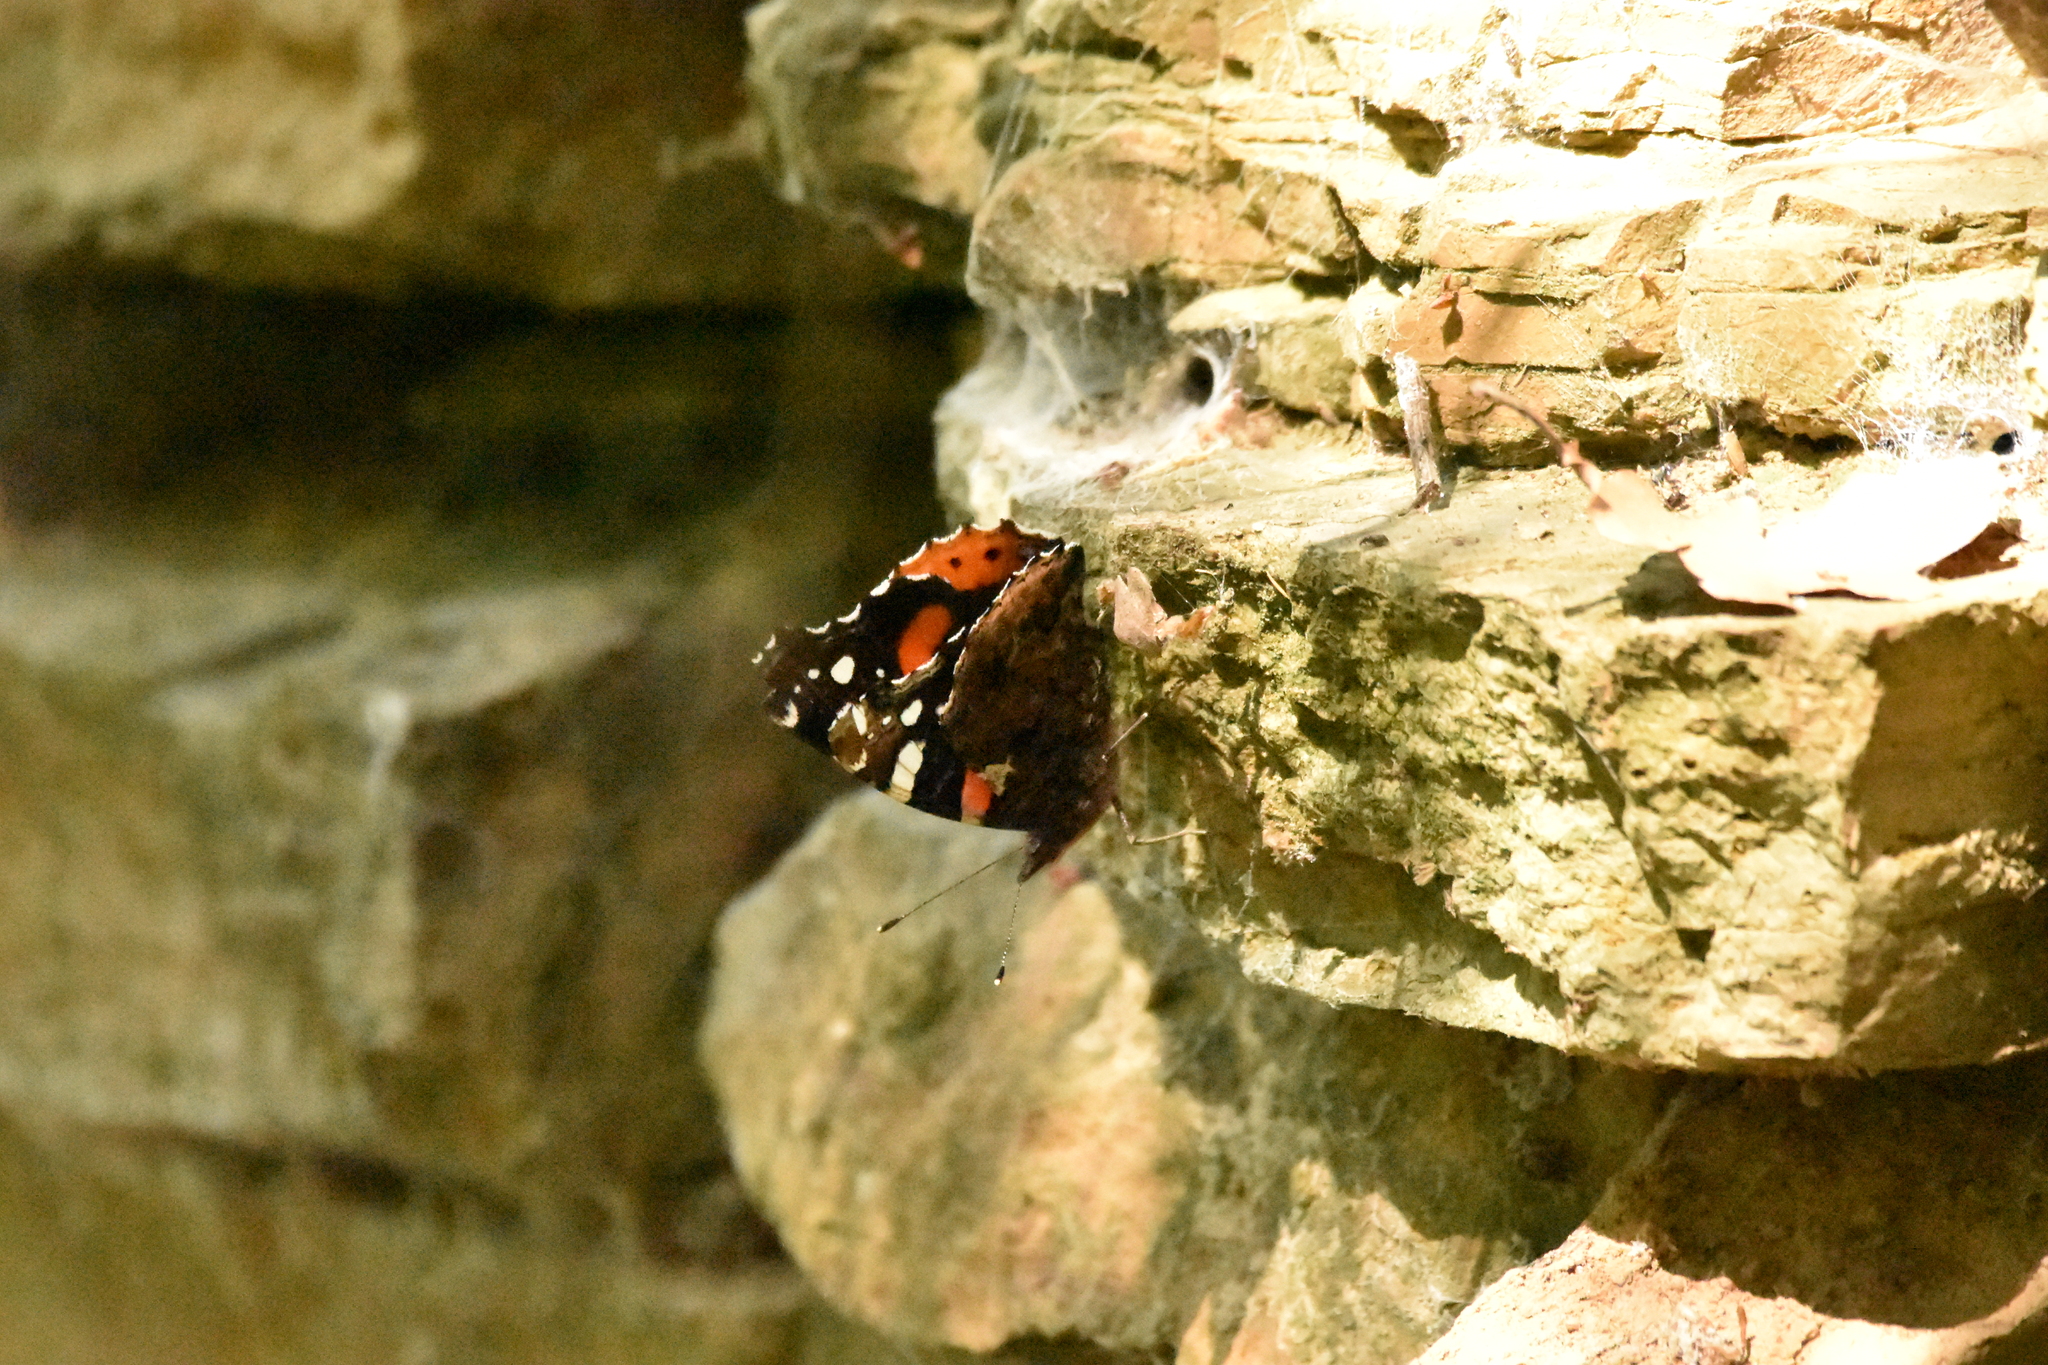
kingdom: Animalia
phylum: Arthropoda
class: Insecta
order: Lepidoptera
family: Nymphalidae
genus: Vanessa
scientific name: Vanessa atalanta
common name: Red admiral
